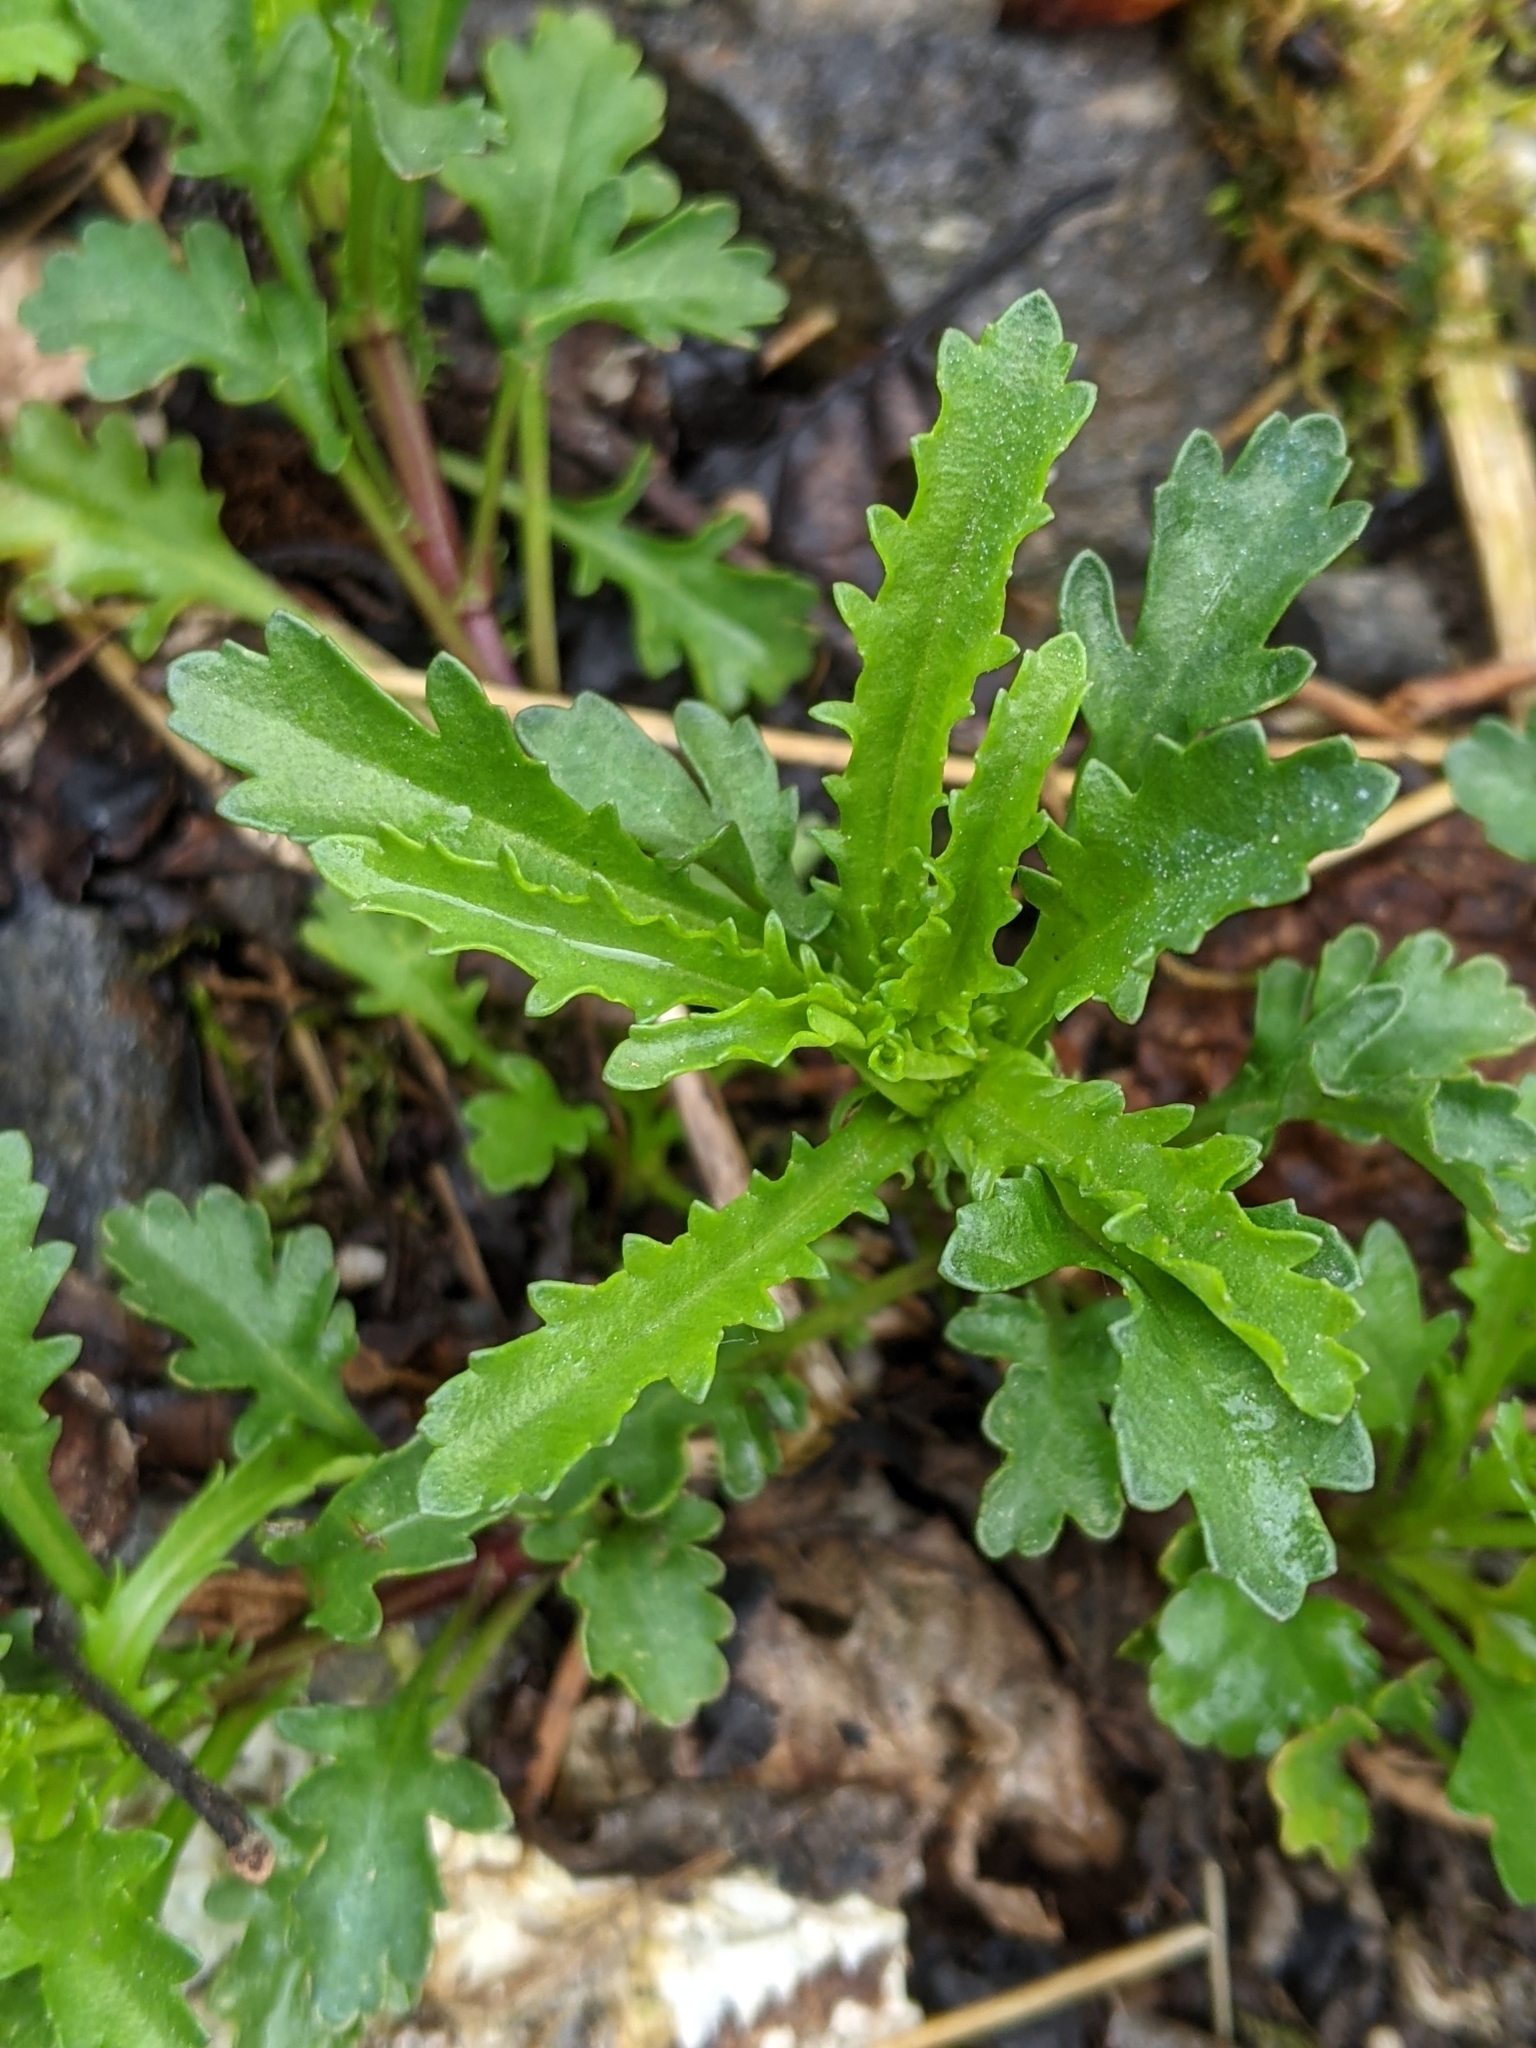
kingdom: Plantae
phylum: Tracheophyta
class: Magnoliopsida
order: Asterales
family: Asteraceae
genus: Leucanthemum
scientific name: Leucanthemum vulgare
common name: Oxeye daisy
